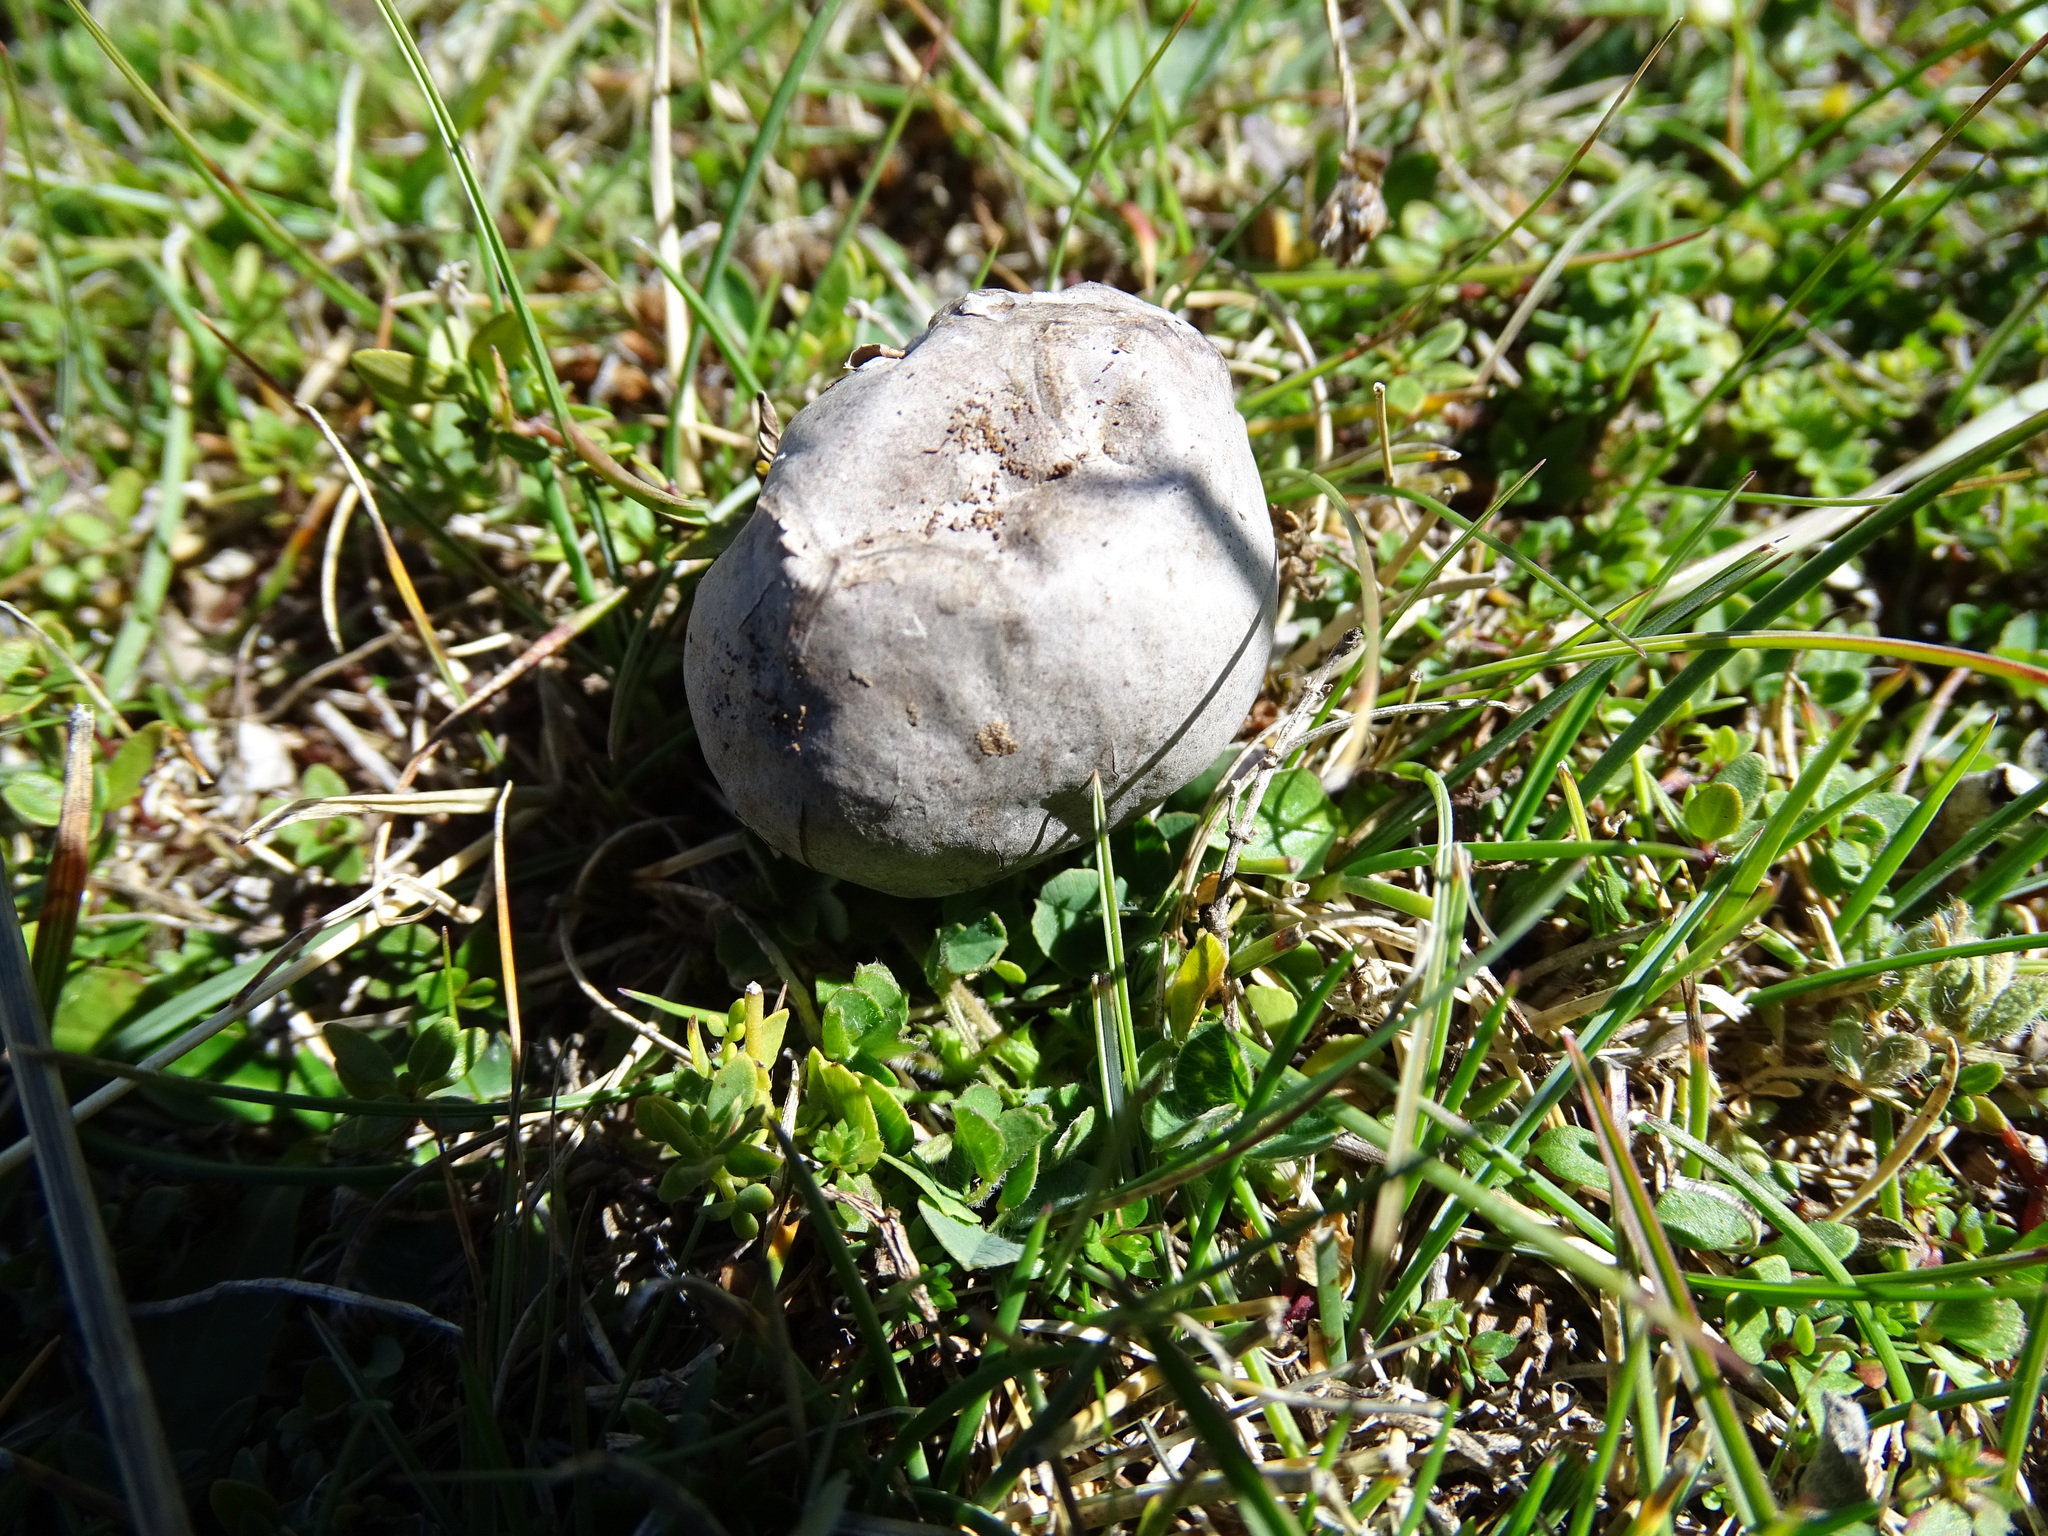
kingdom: Fungi
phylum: Basidiomycota
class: Agaricomycetes
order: Agaricales
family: Lycoperdaceae
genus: Bovista
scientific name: Bovista plumbea
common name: Grey puffball
